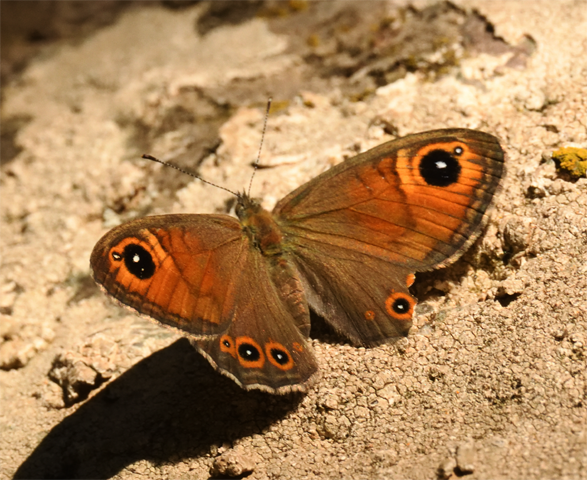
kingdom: Animalia
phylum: Arthropoda
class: Insecta
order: Lepidoptera
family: Nymphalidae
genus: Pararge
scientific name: Pararge Lasiommata maera
